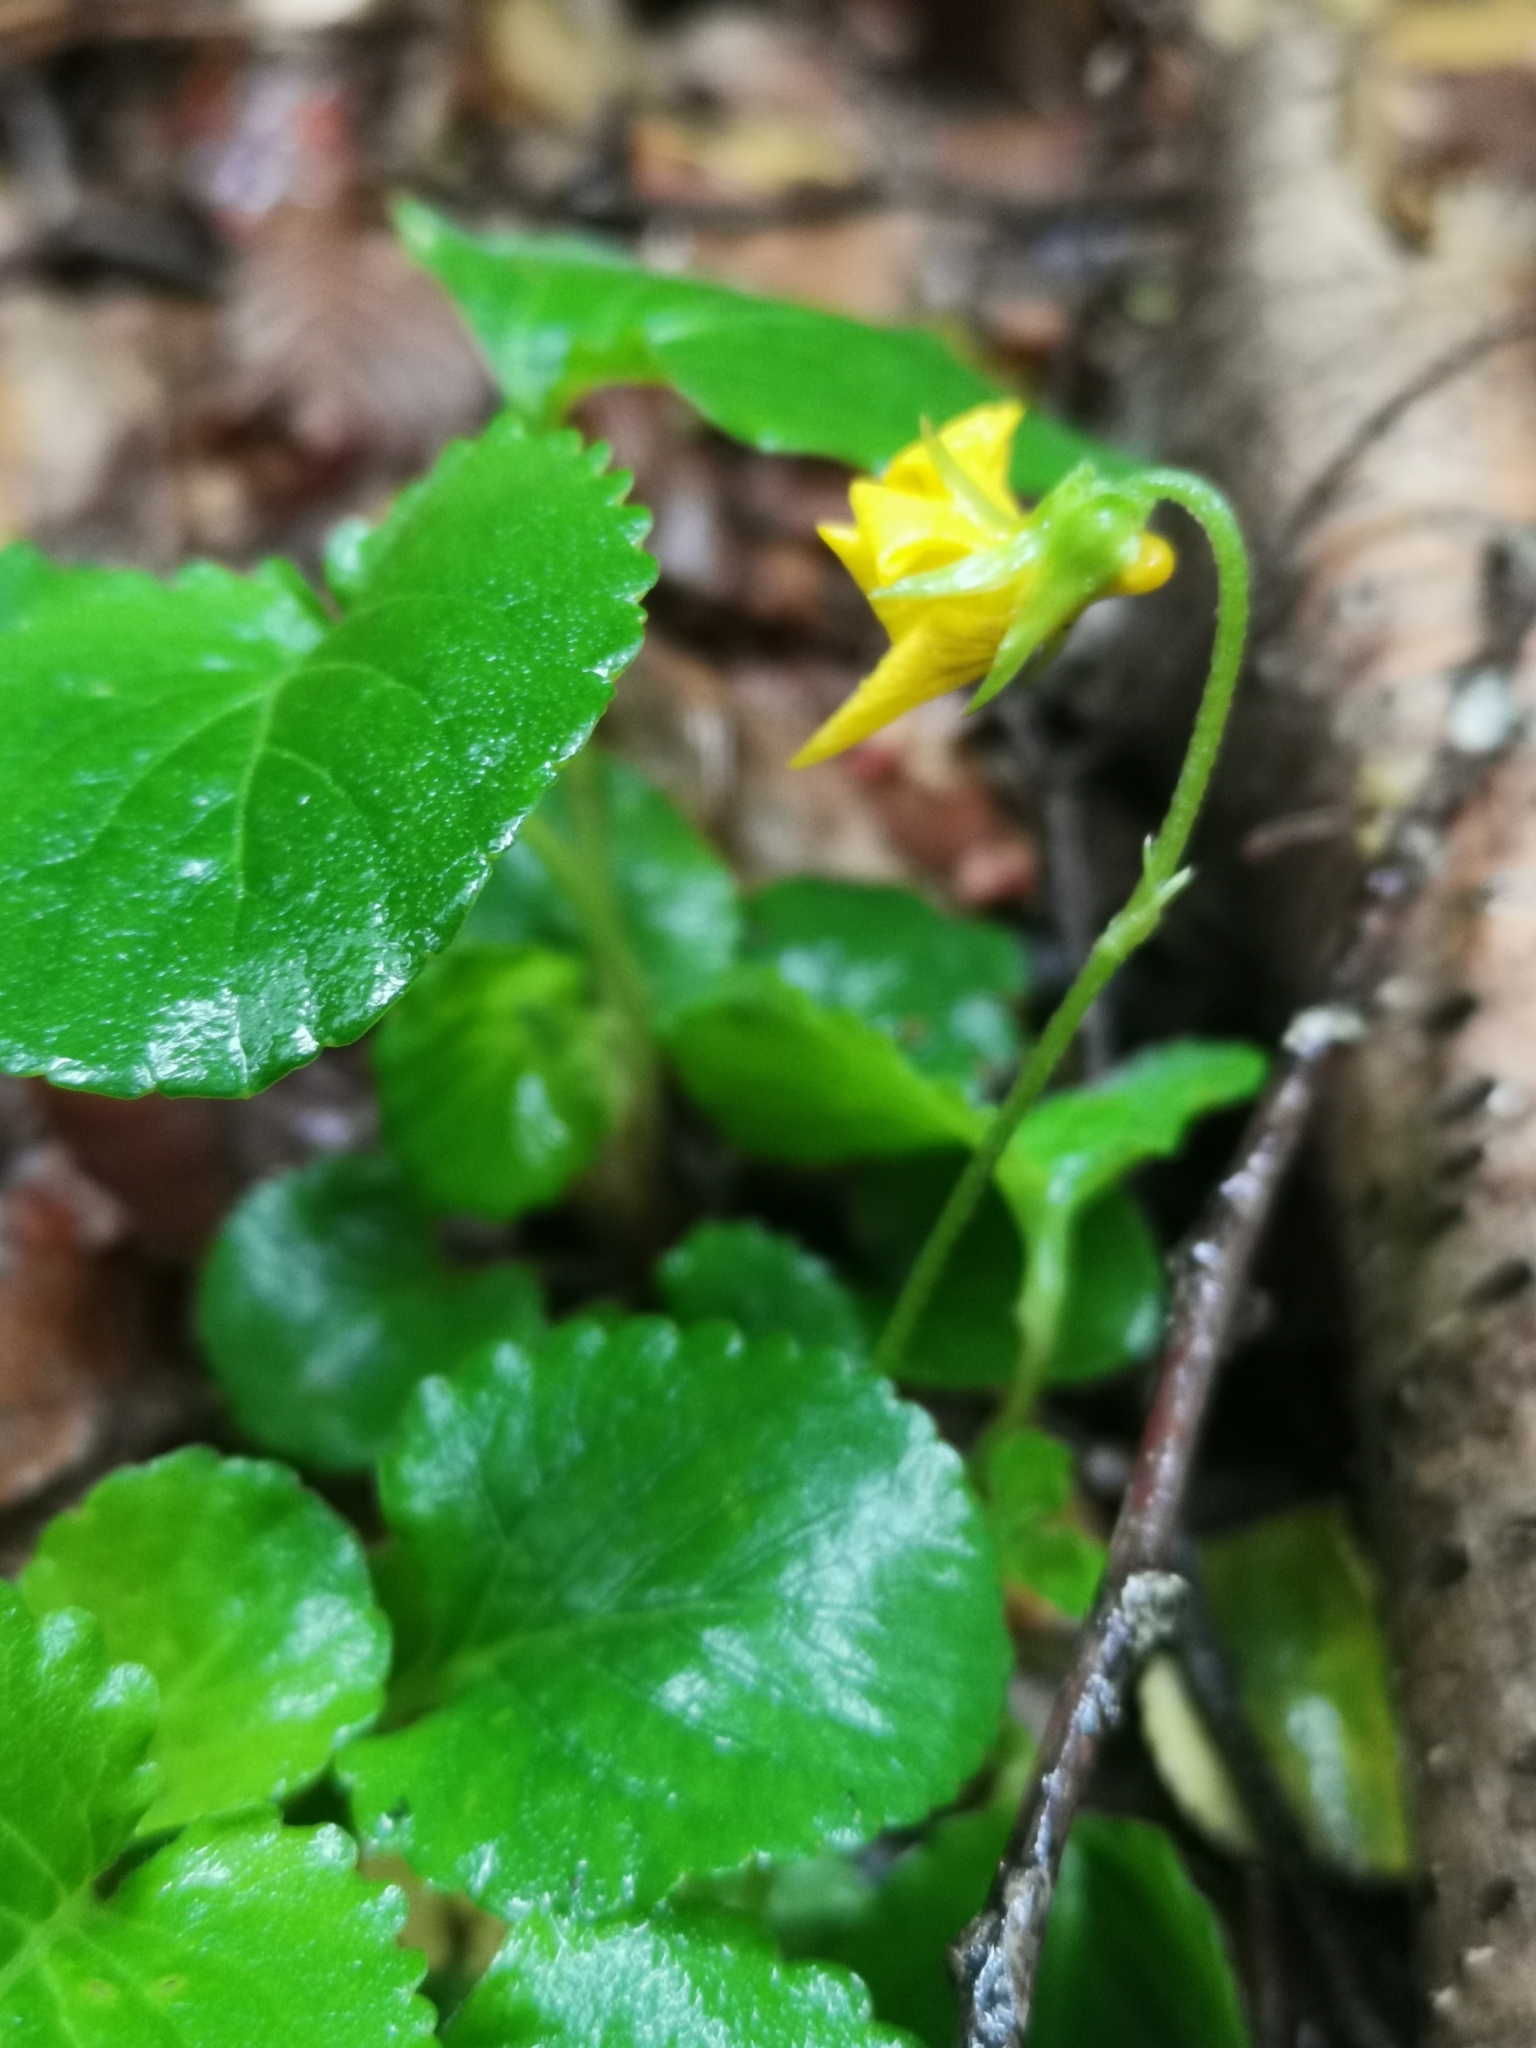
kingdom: Plantae
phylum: Tracheophyta
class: Magnoliopsida
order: Malpighiales
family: Violaceae
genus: Viola
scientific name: Viola reichei
